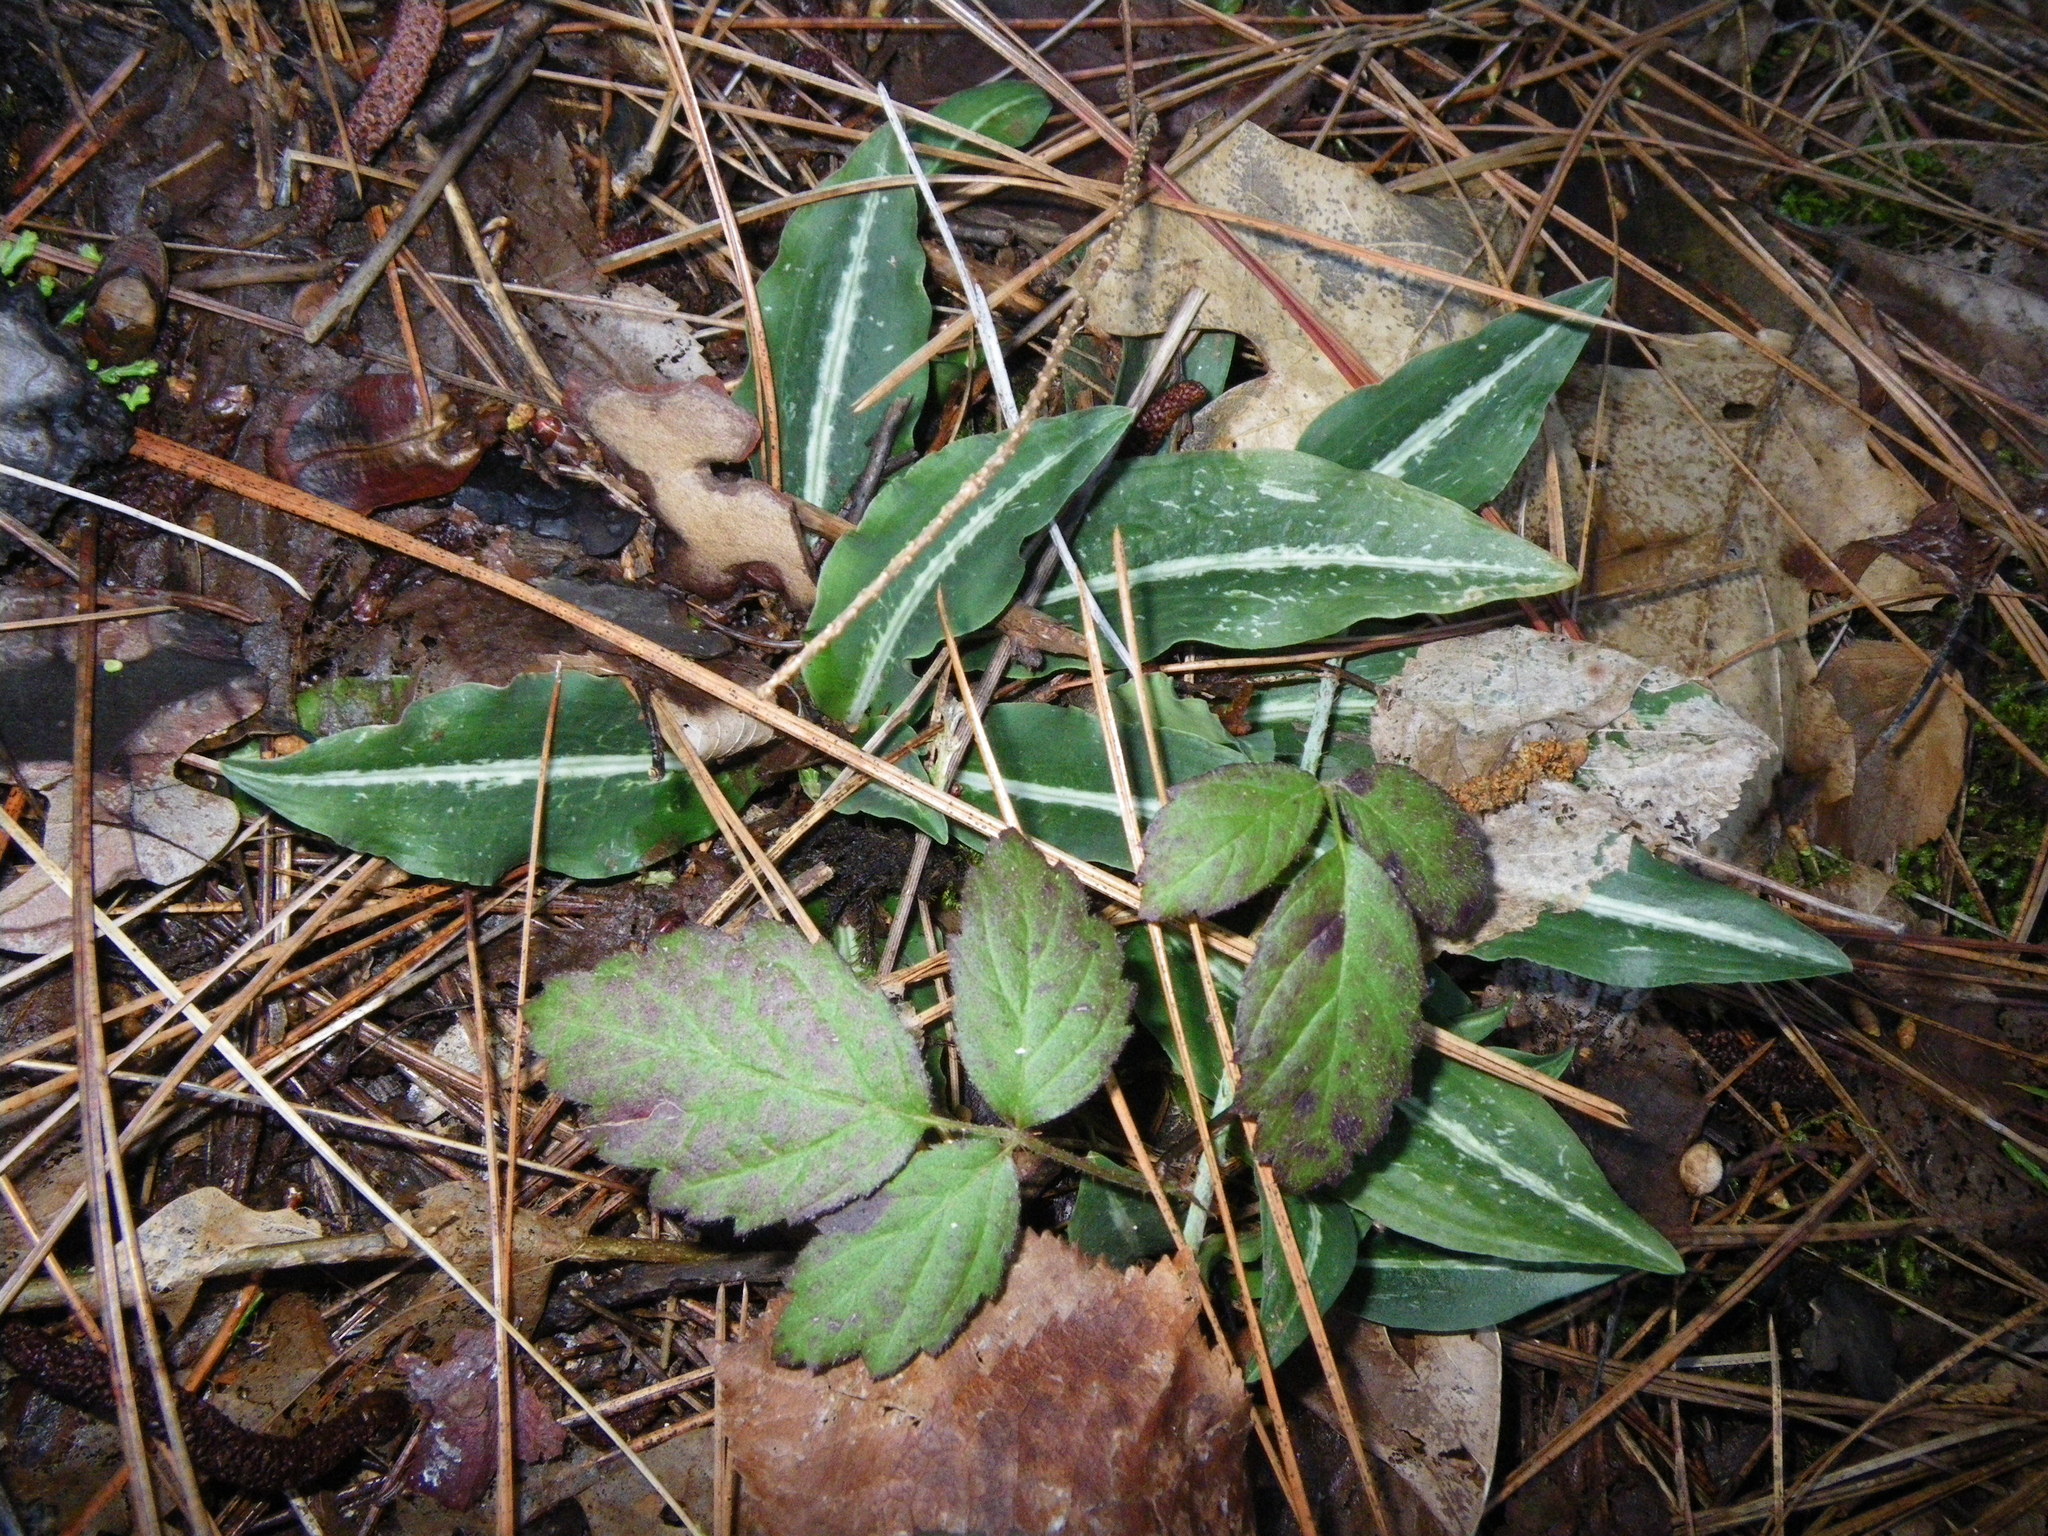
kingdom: Plantae
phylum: Tracheophyta
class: Liliopsida
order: Asparagales
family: Orchidaceae
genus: Goodyera
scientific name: Goodyera oblongifolia
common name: Giant rattlesnake-plantain
